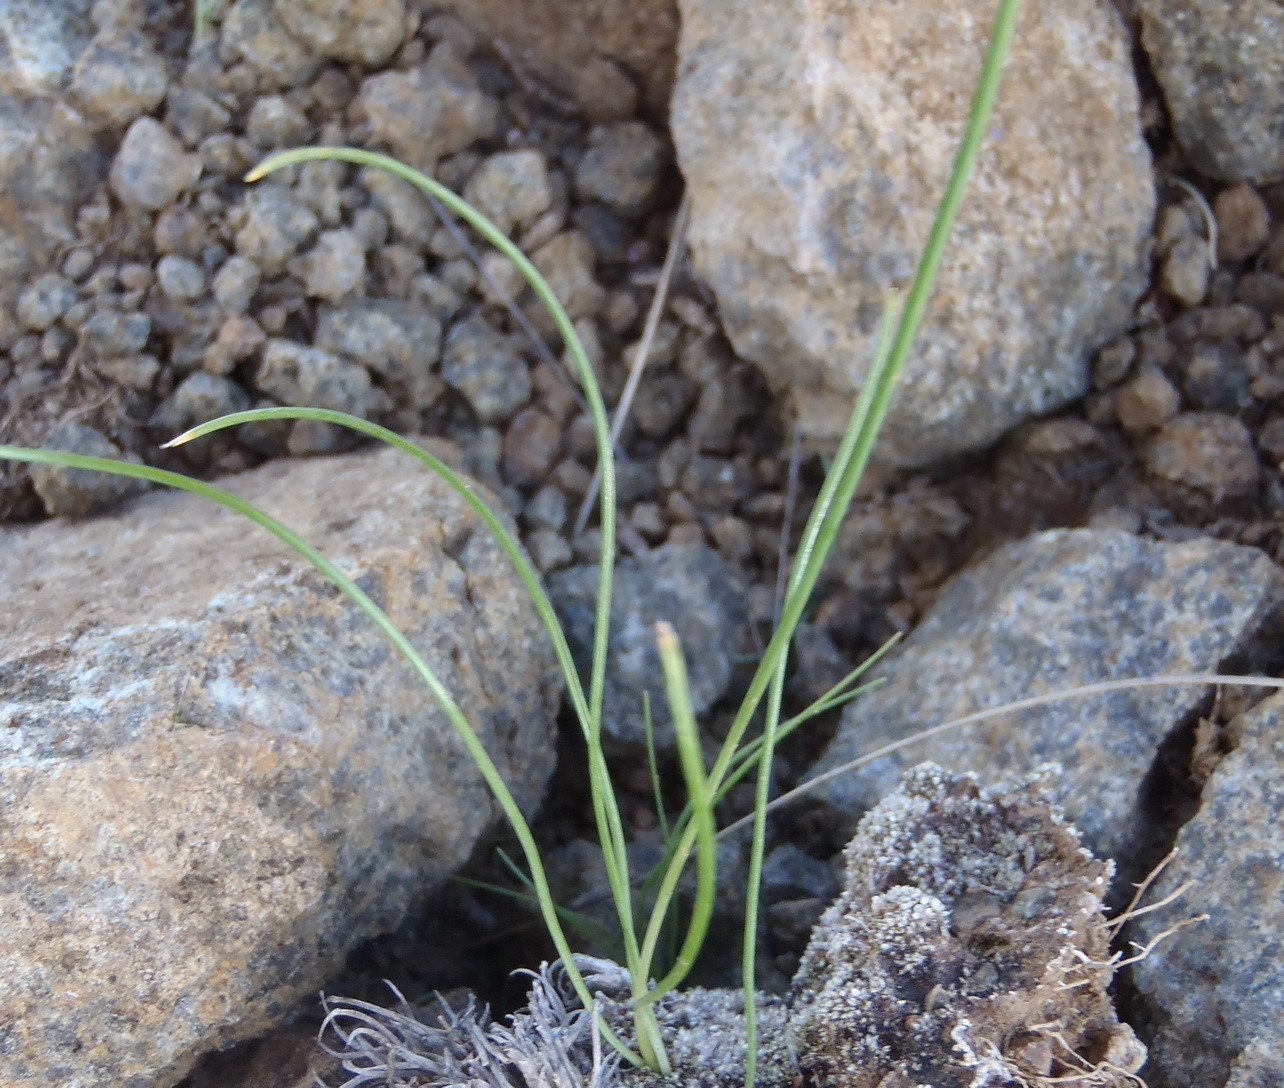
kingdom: Plantae
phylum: Tracheophyta
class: Liliopsida
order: Asparagales
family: Asparagaceae
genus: Dipcadi
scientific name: Dipcadi ciliare
